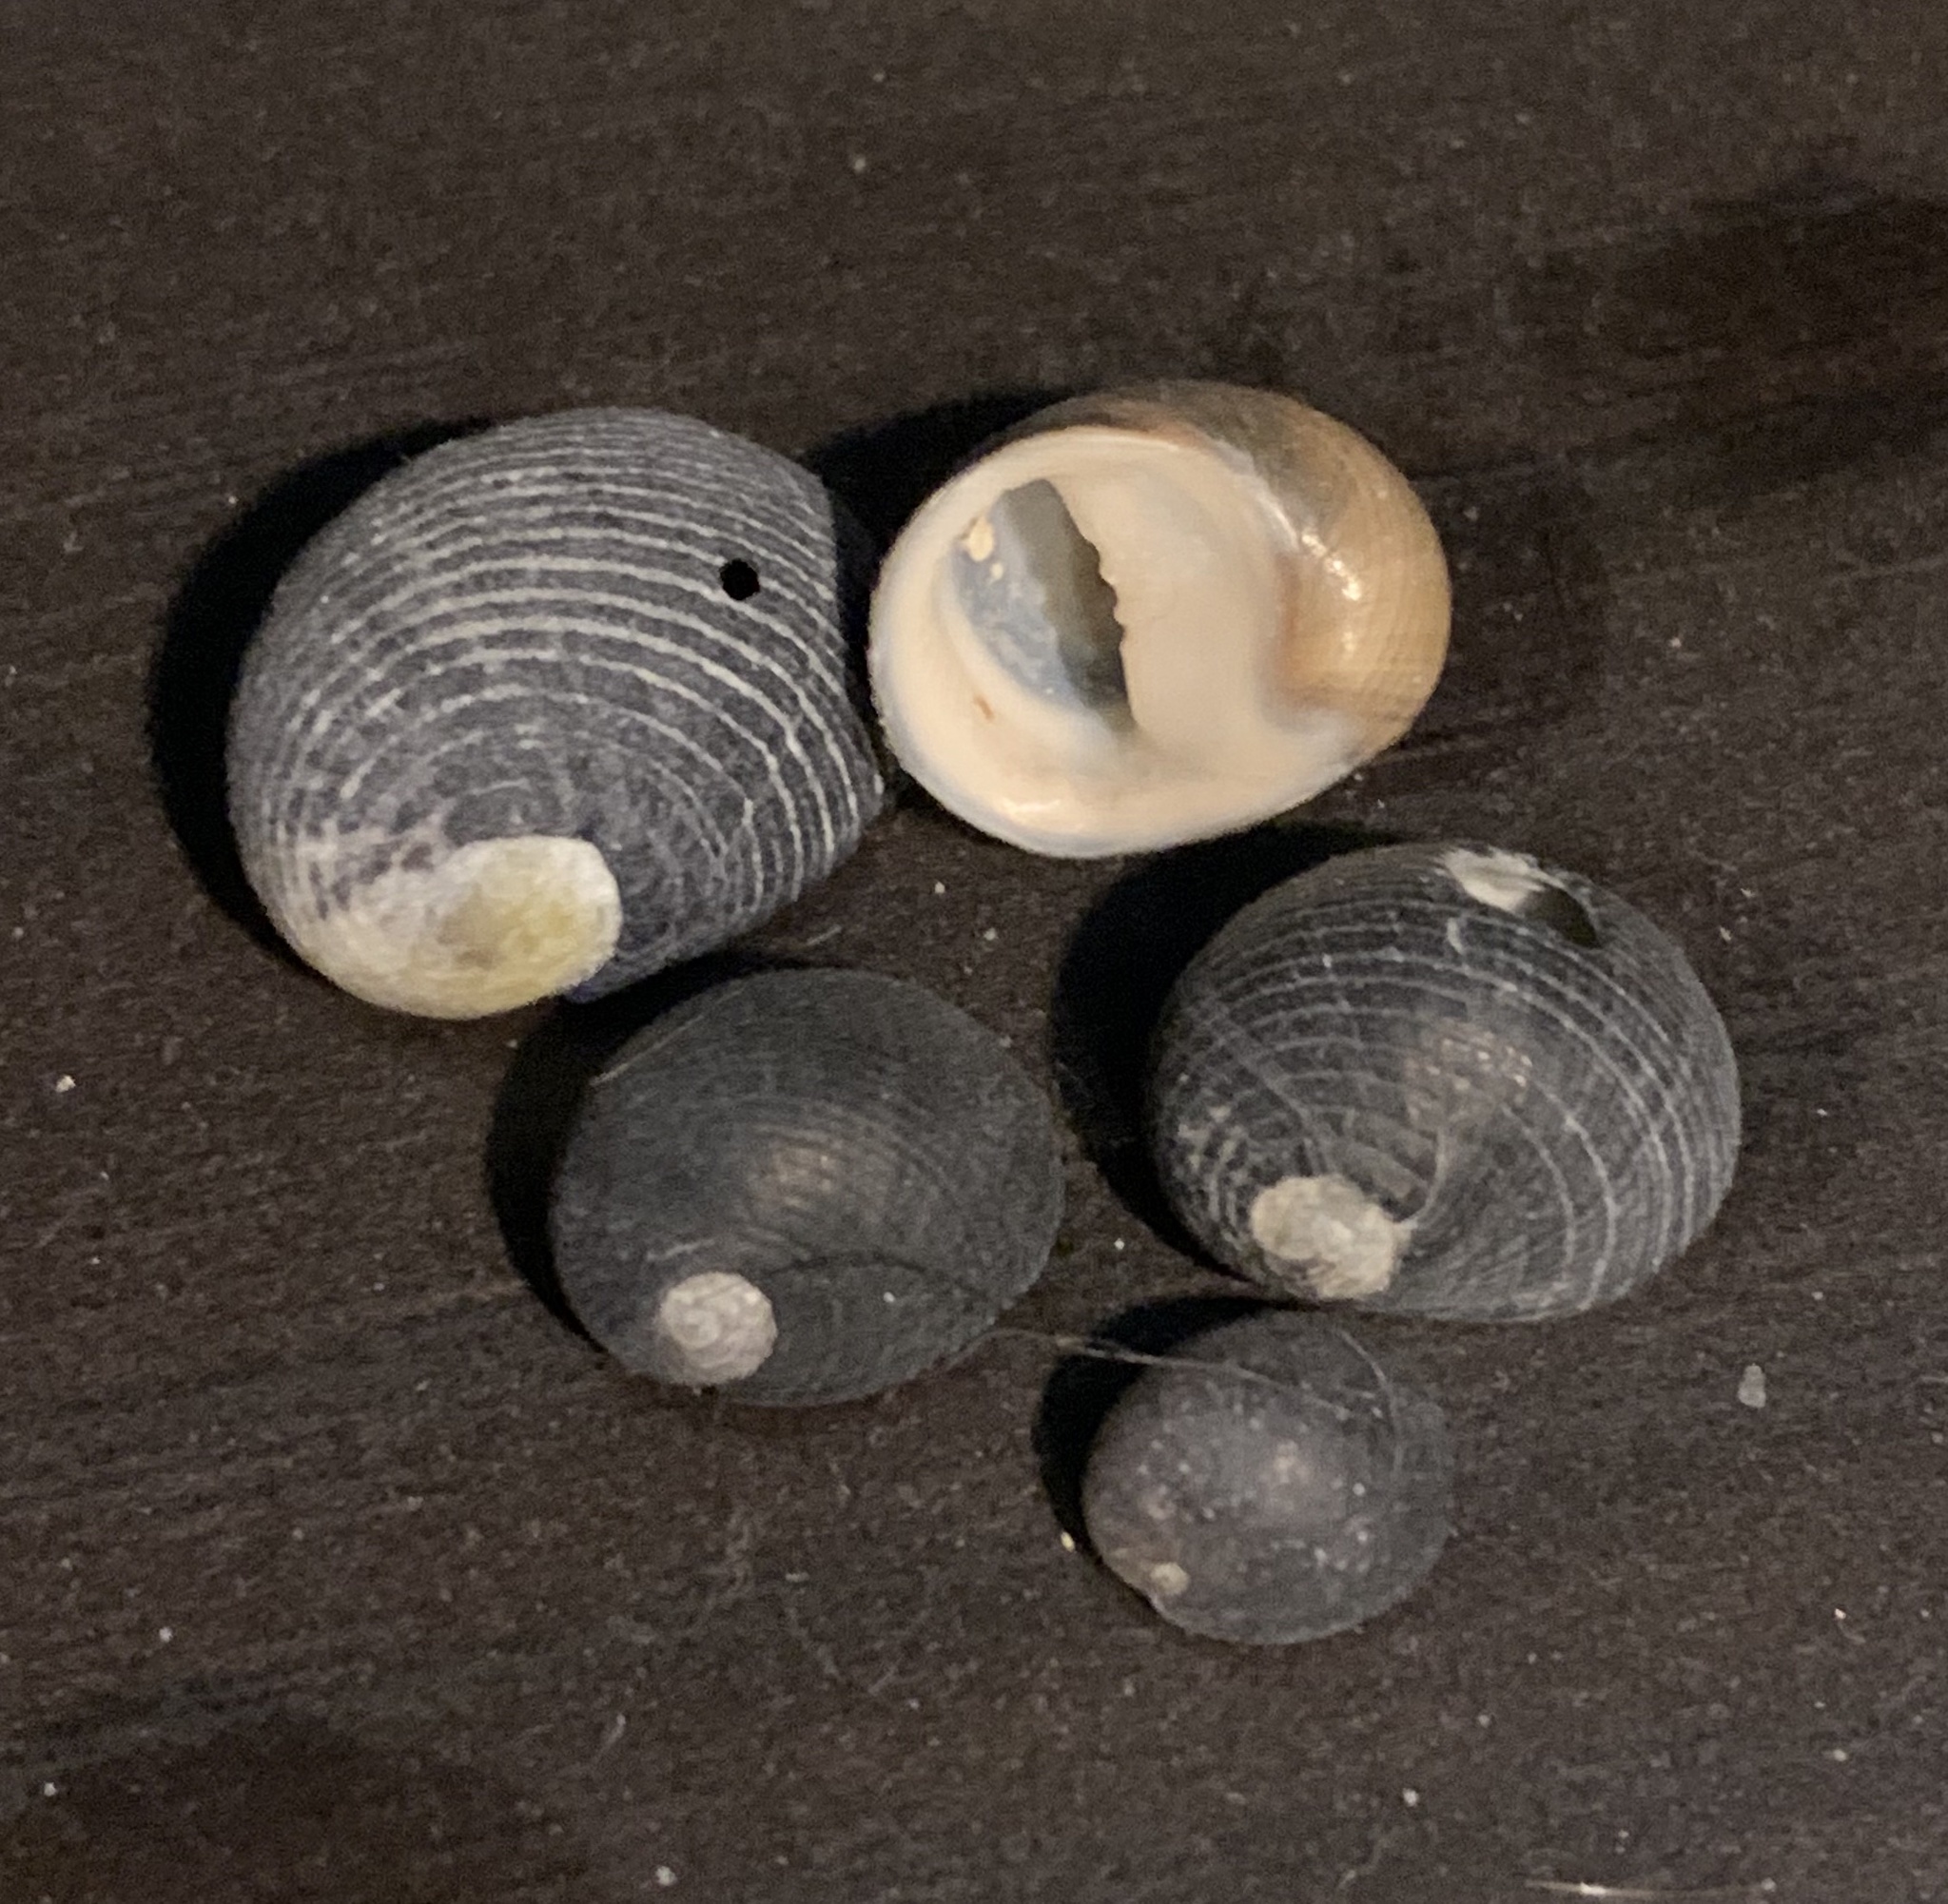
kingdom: Animalia
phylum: Mollusca
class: Gastropoda
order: Cycloneritida
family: Neritidae
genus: Nerita
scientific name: Nerita picea
